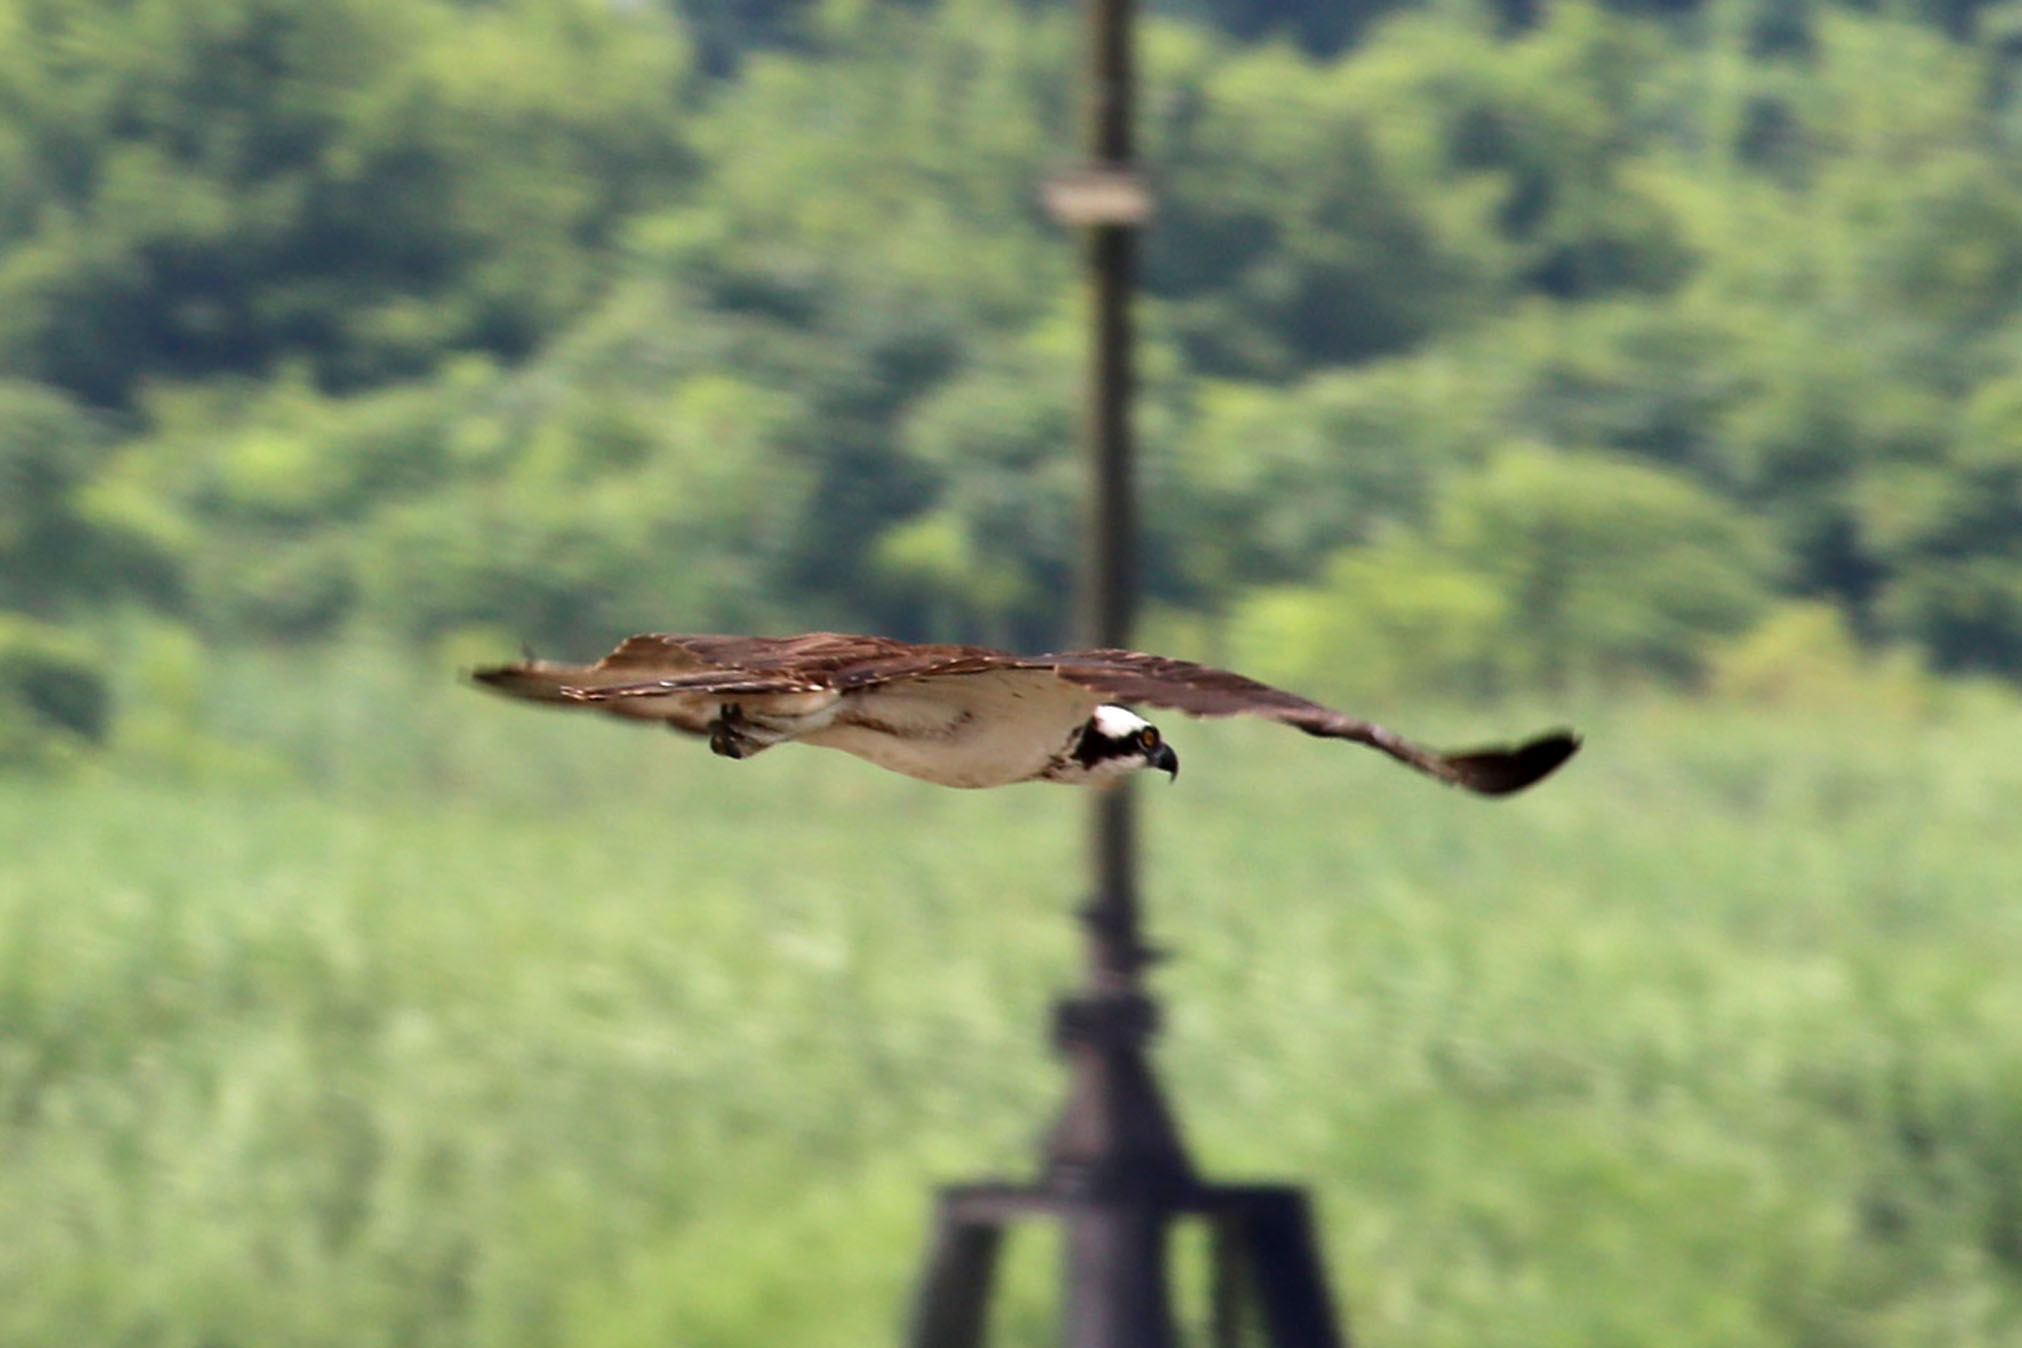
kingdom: Animalia
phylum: Chordata
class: Aves
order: Accipitriformes
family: Pandionidae
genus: Pandion
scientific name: Pandion haliaetus
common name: Osprey
